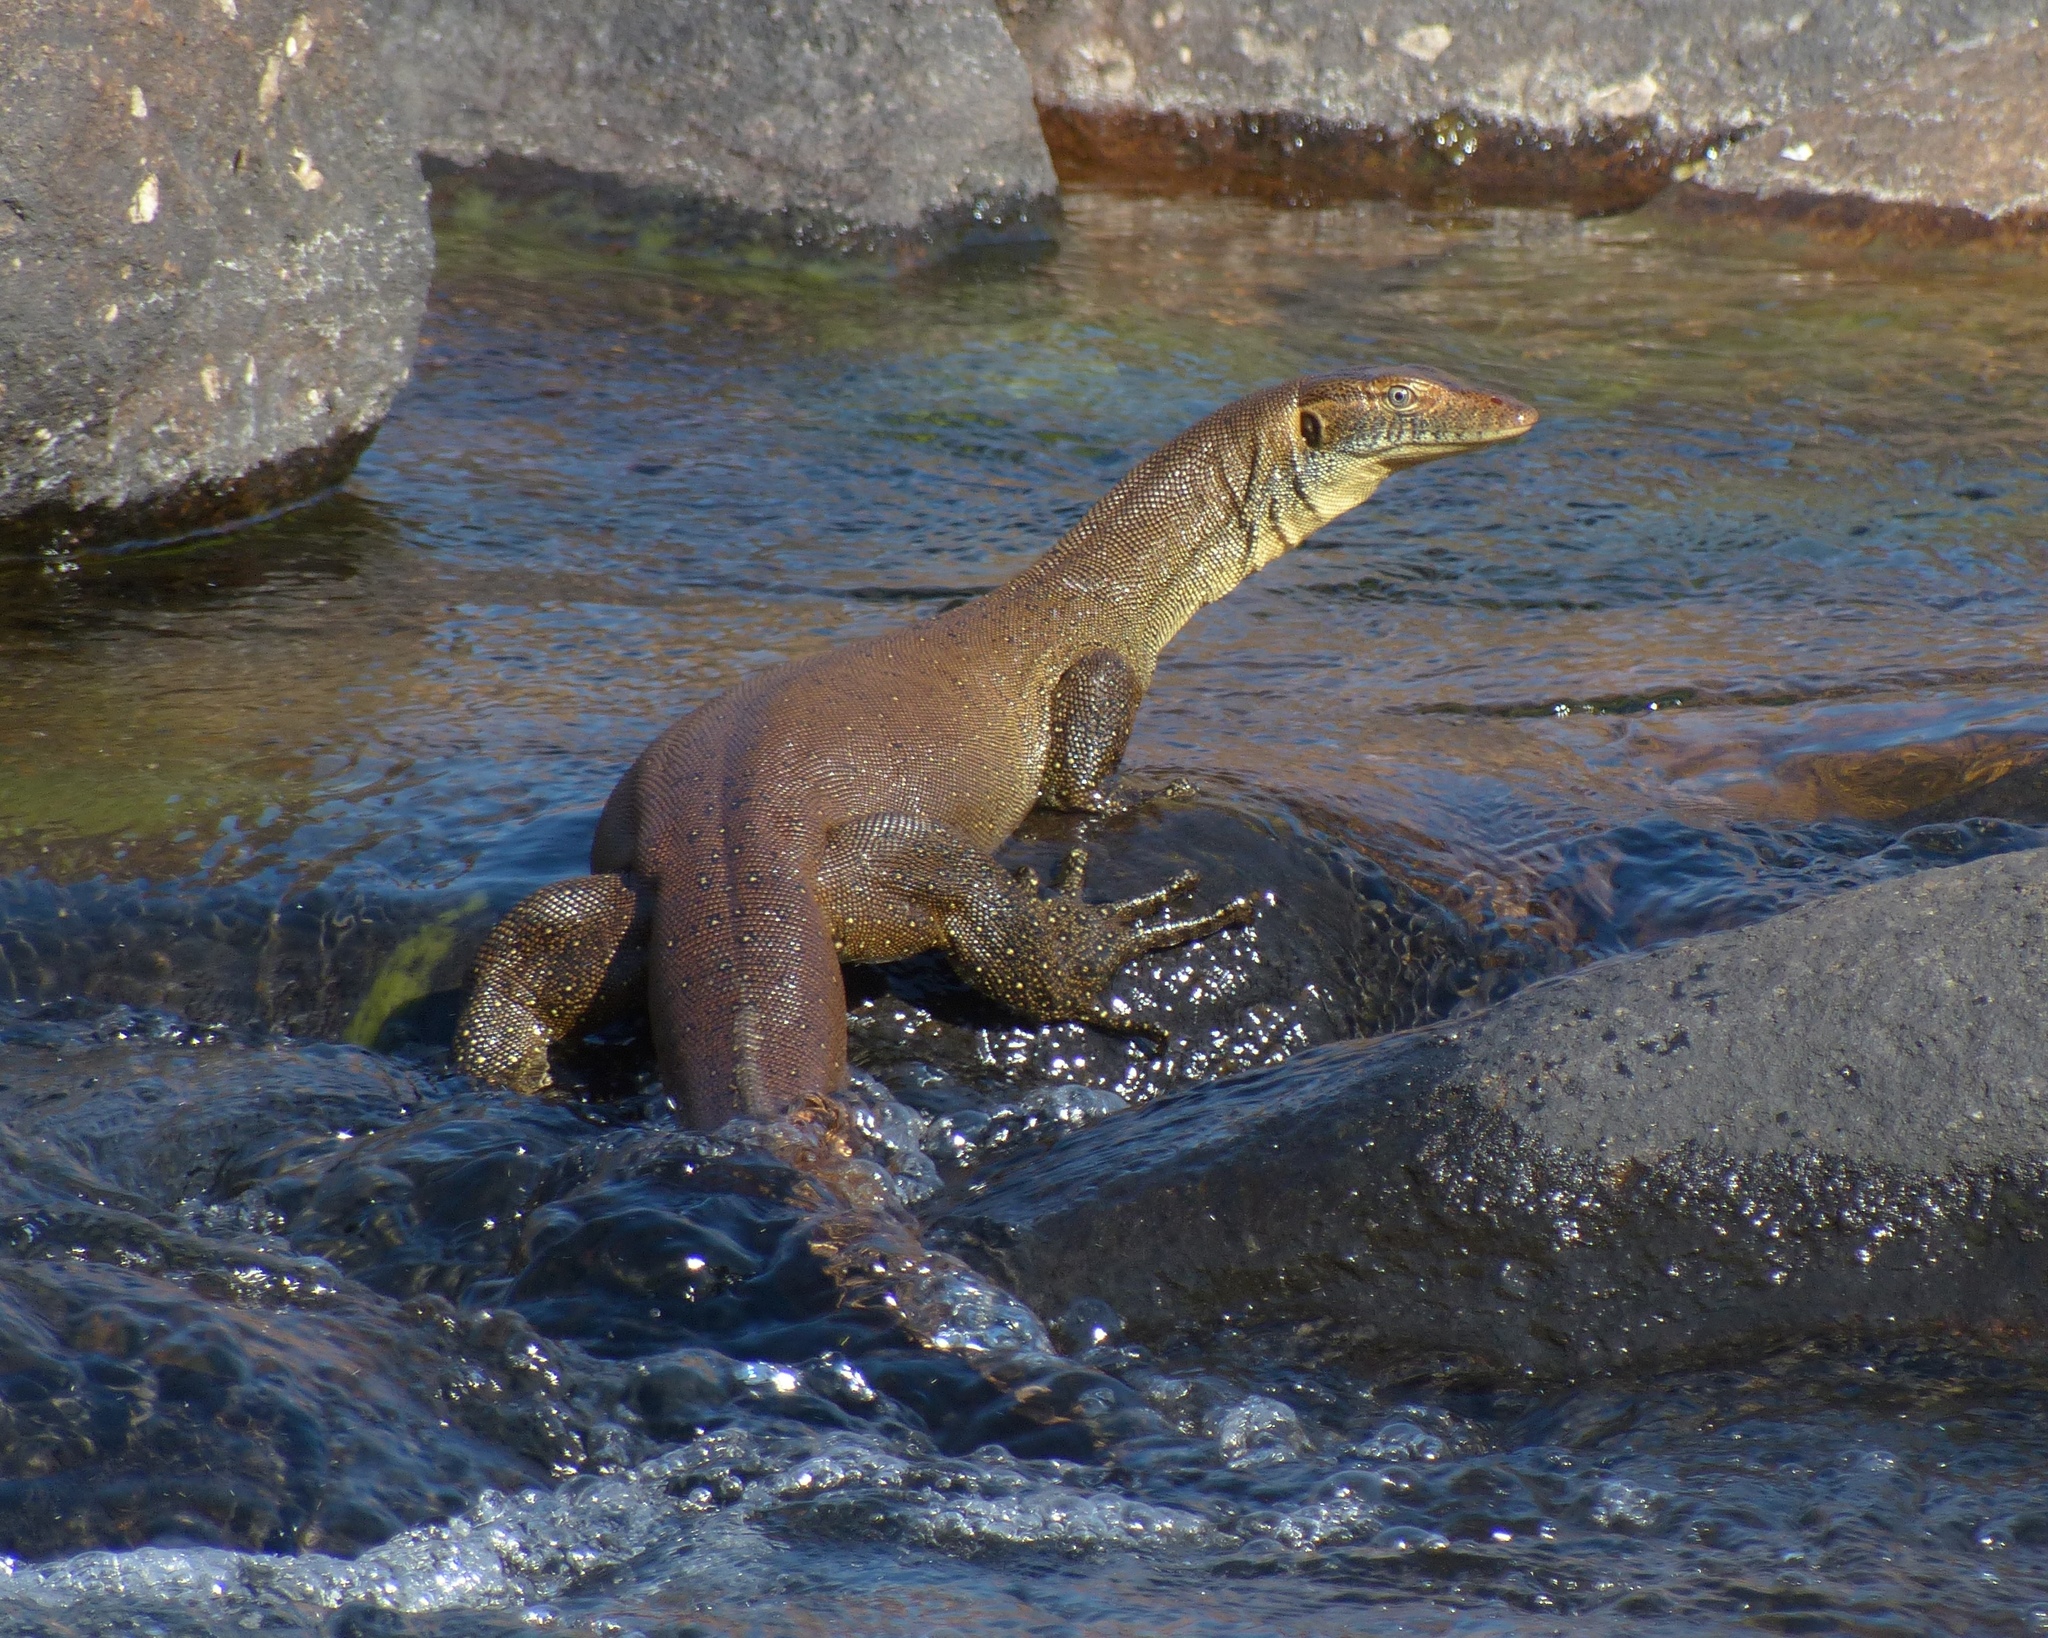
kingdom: Animalia
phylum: Chordata
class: Squamata
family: Varanidae
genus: Varanus
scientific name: Varanus mertensi
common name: Mertens's water monitor
